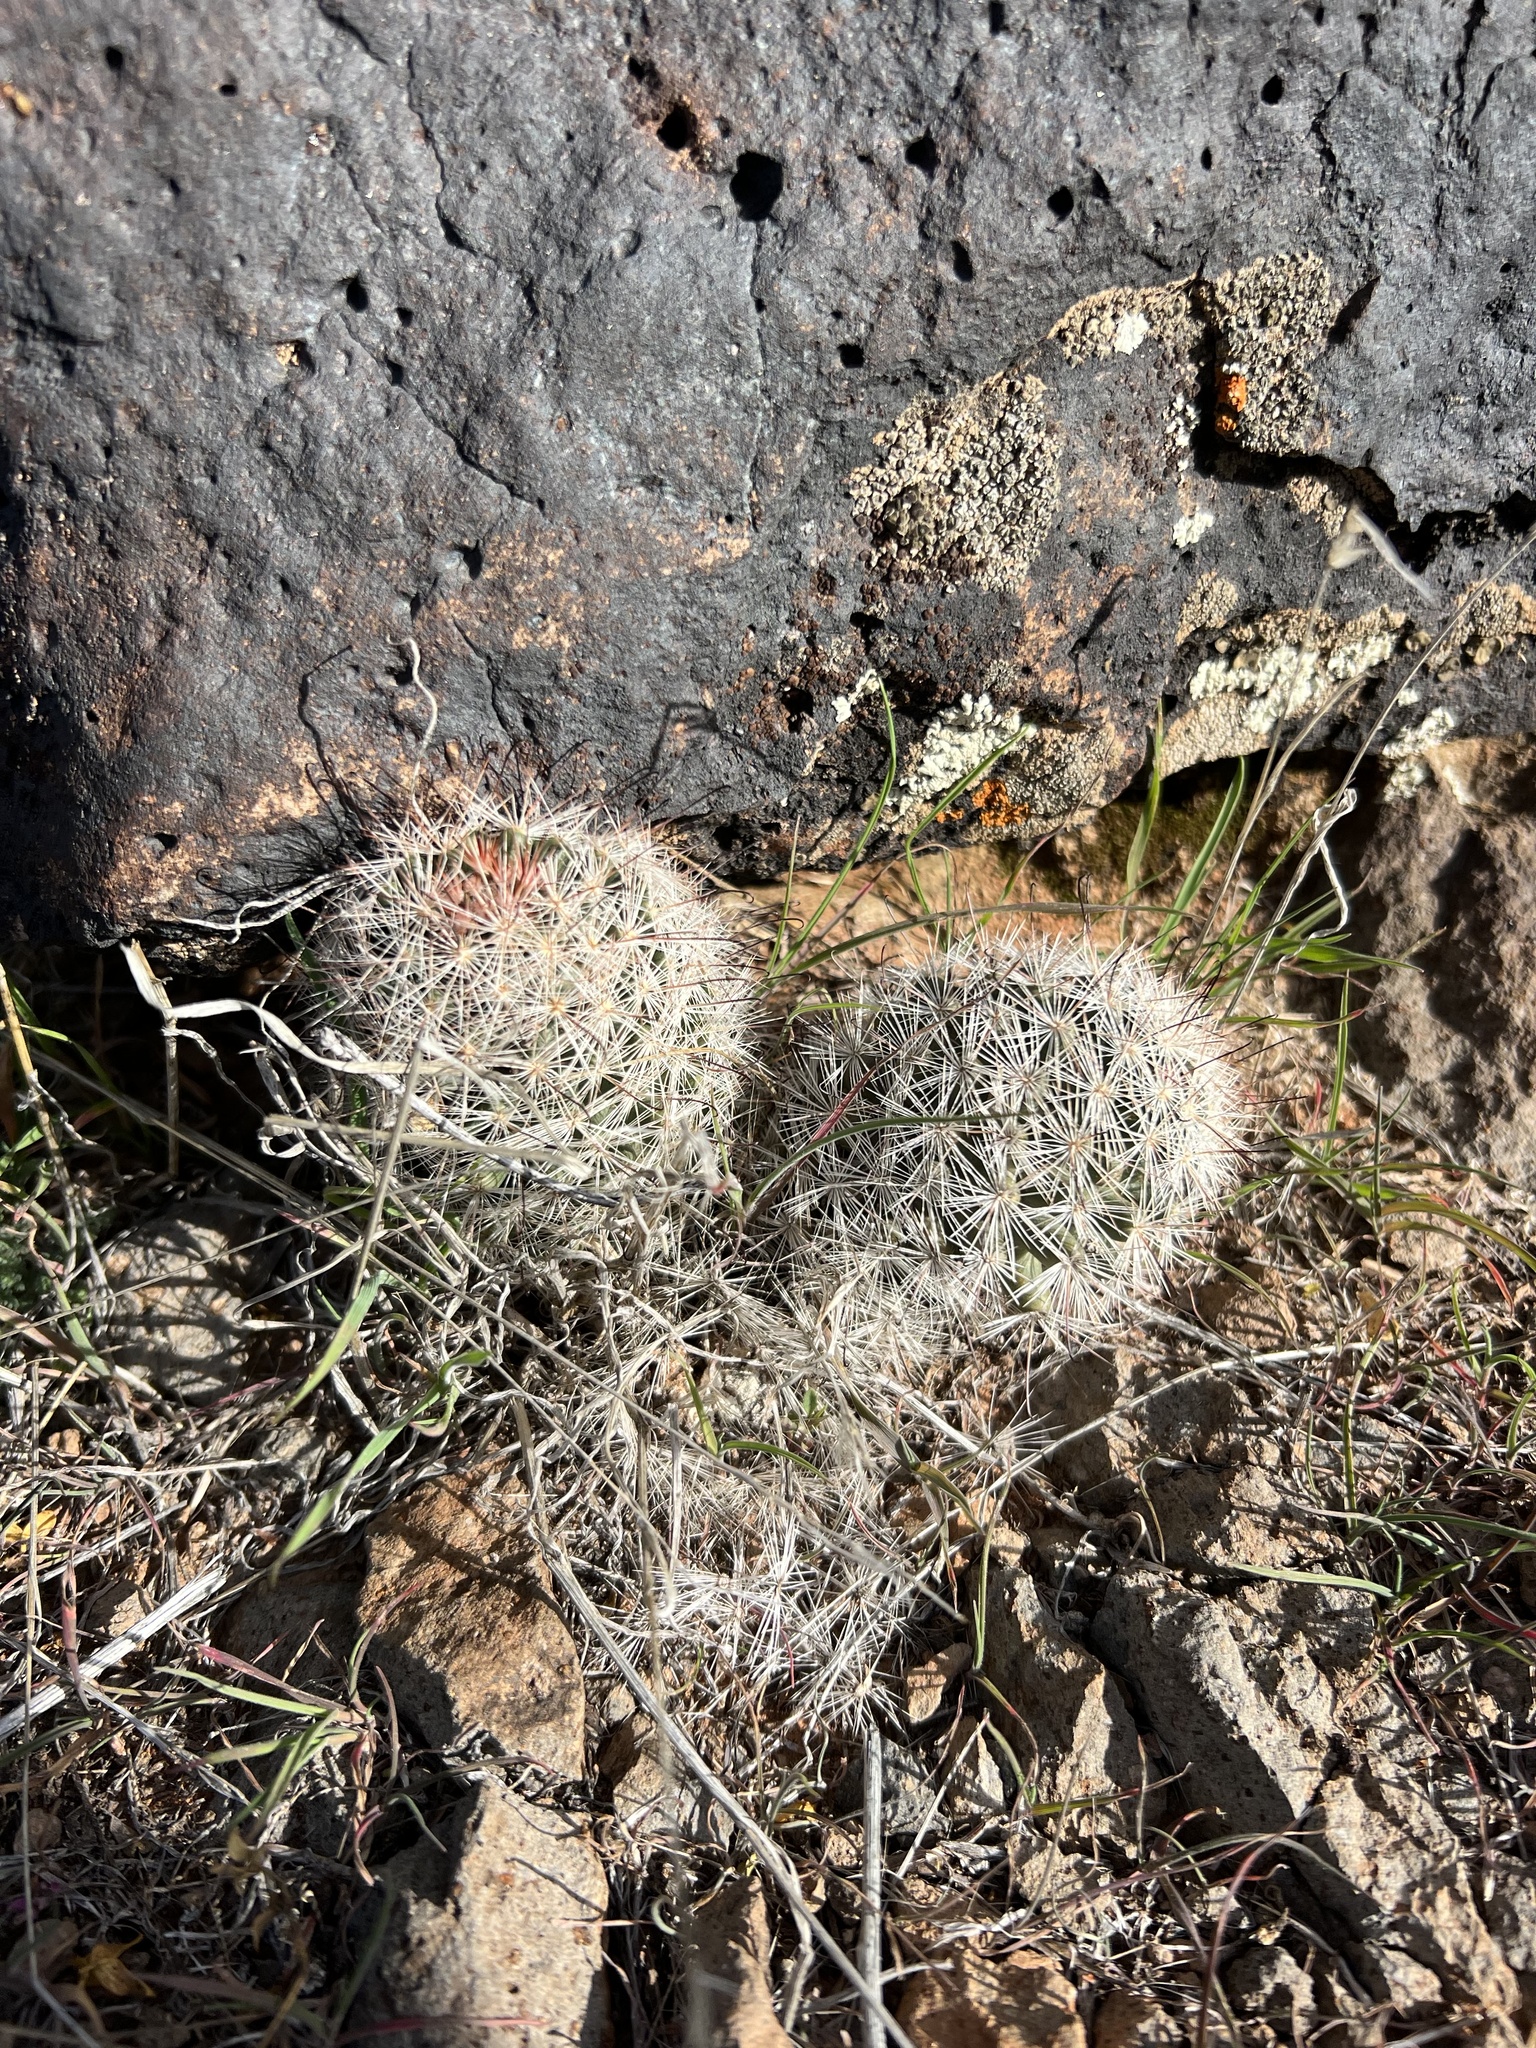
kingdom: Plantae
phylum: Tracheophyta
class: Magnoliopsida
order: Caryophyllales
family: Cactaceae
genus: Cochemiea
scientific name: Cochemiea tetrancistra
